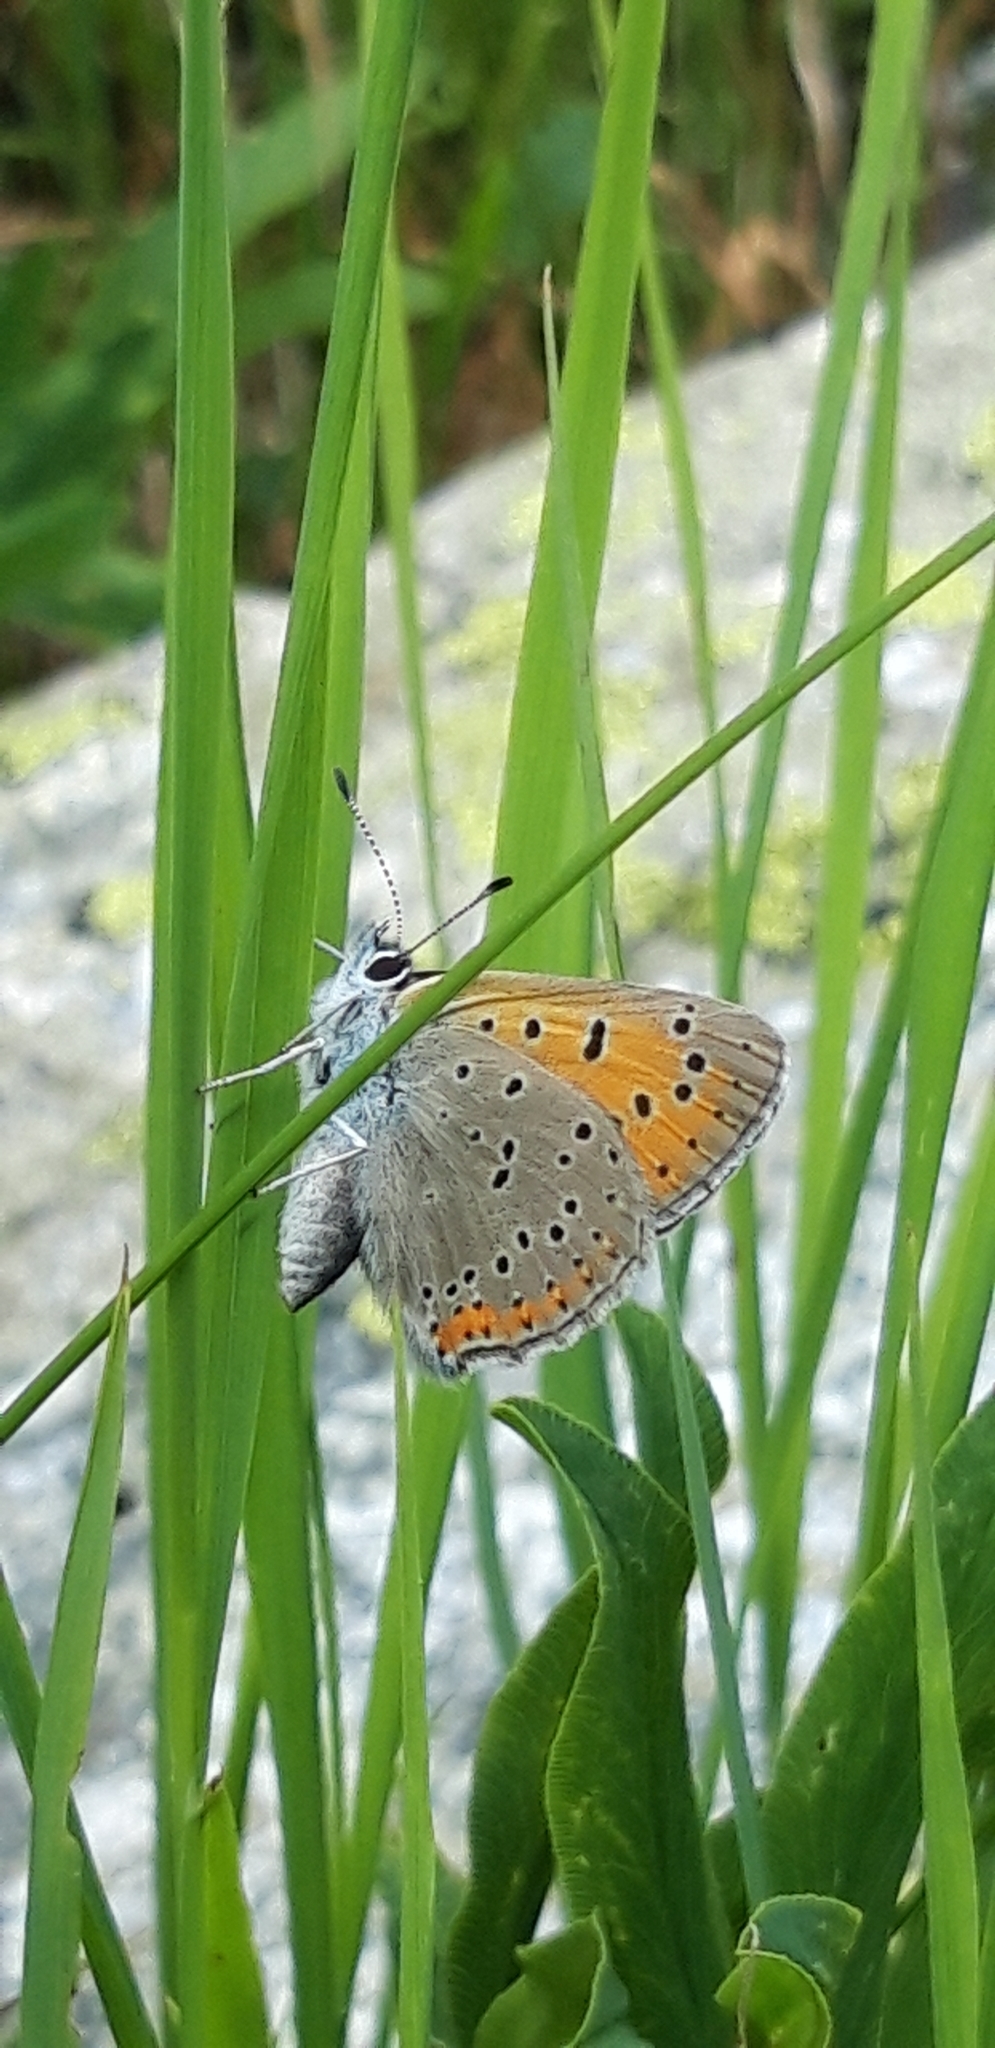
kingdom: Animalia
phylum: Arthropoda
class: Insecta
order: Lepidoptera
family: Lycaenidae
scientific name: Lycaenidae
